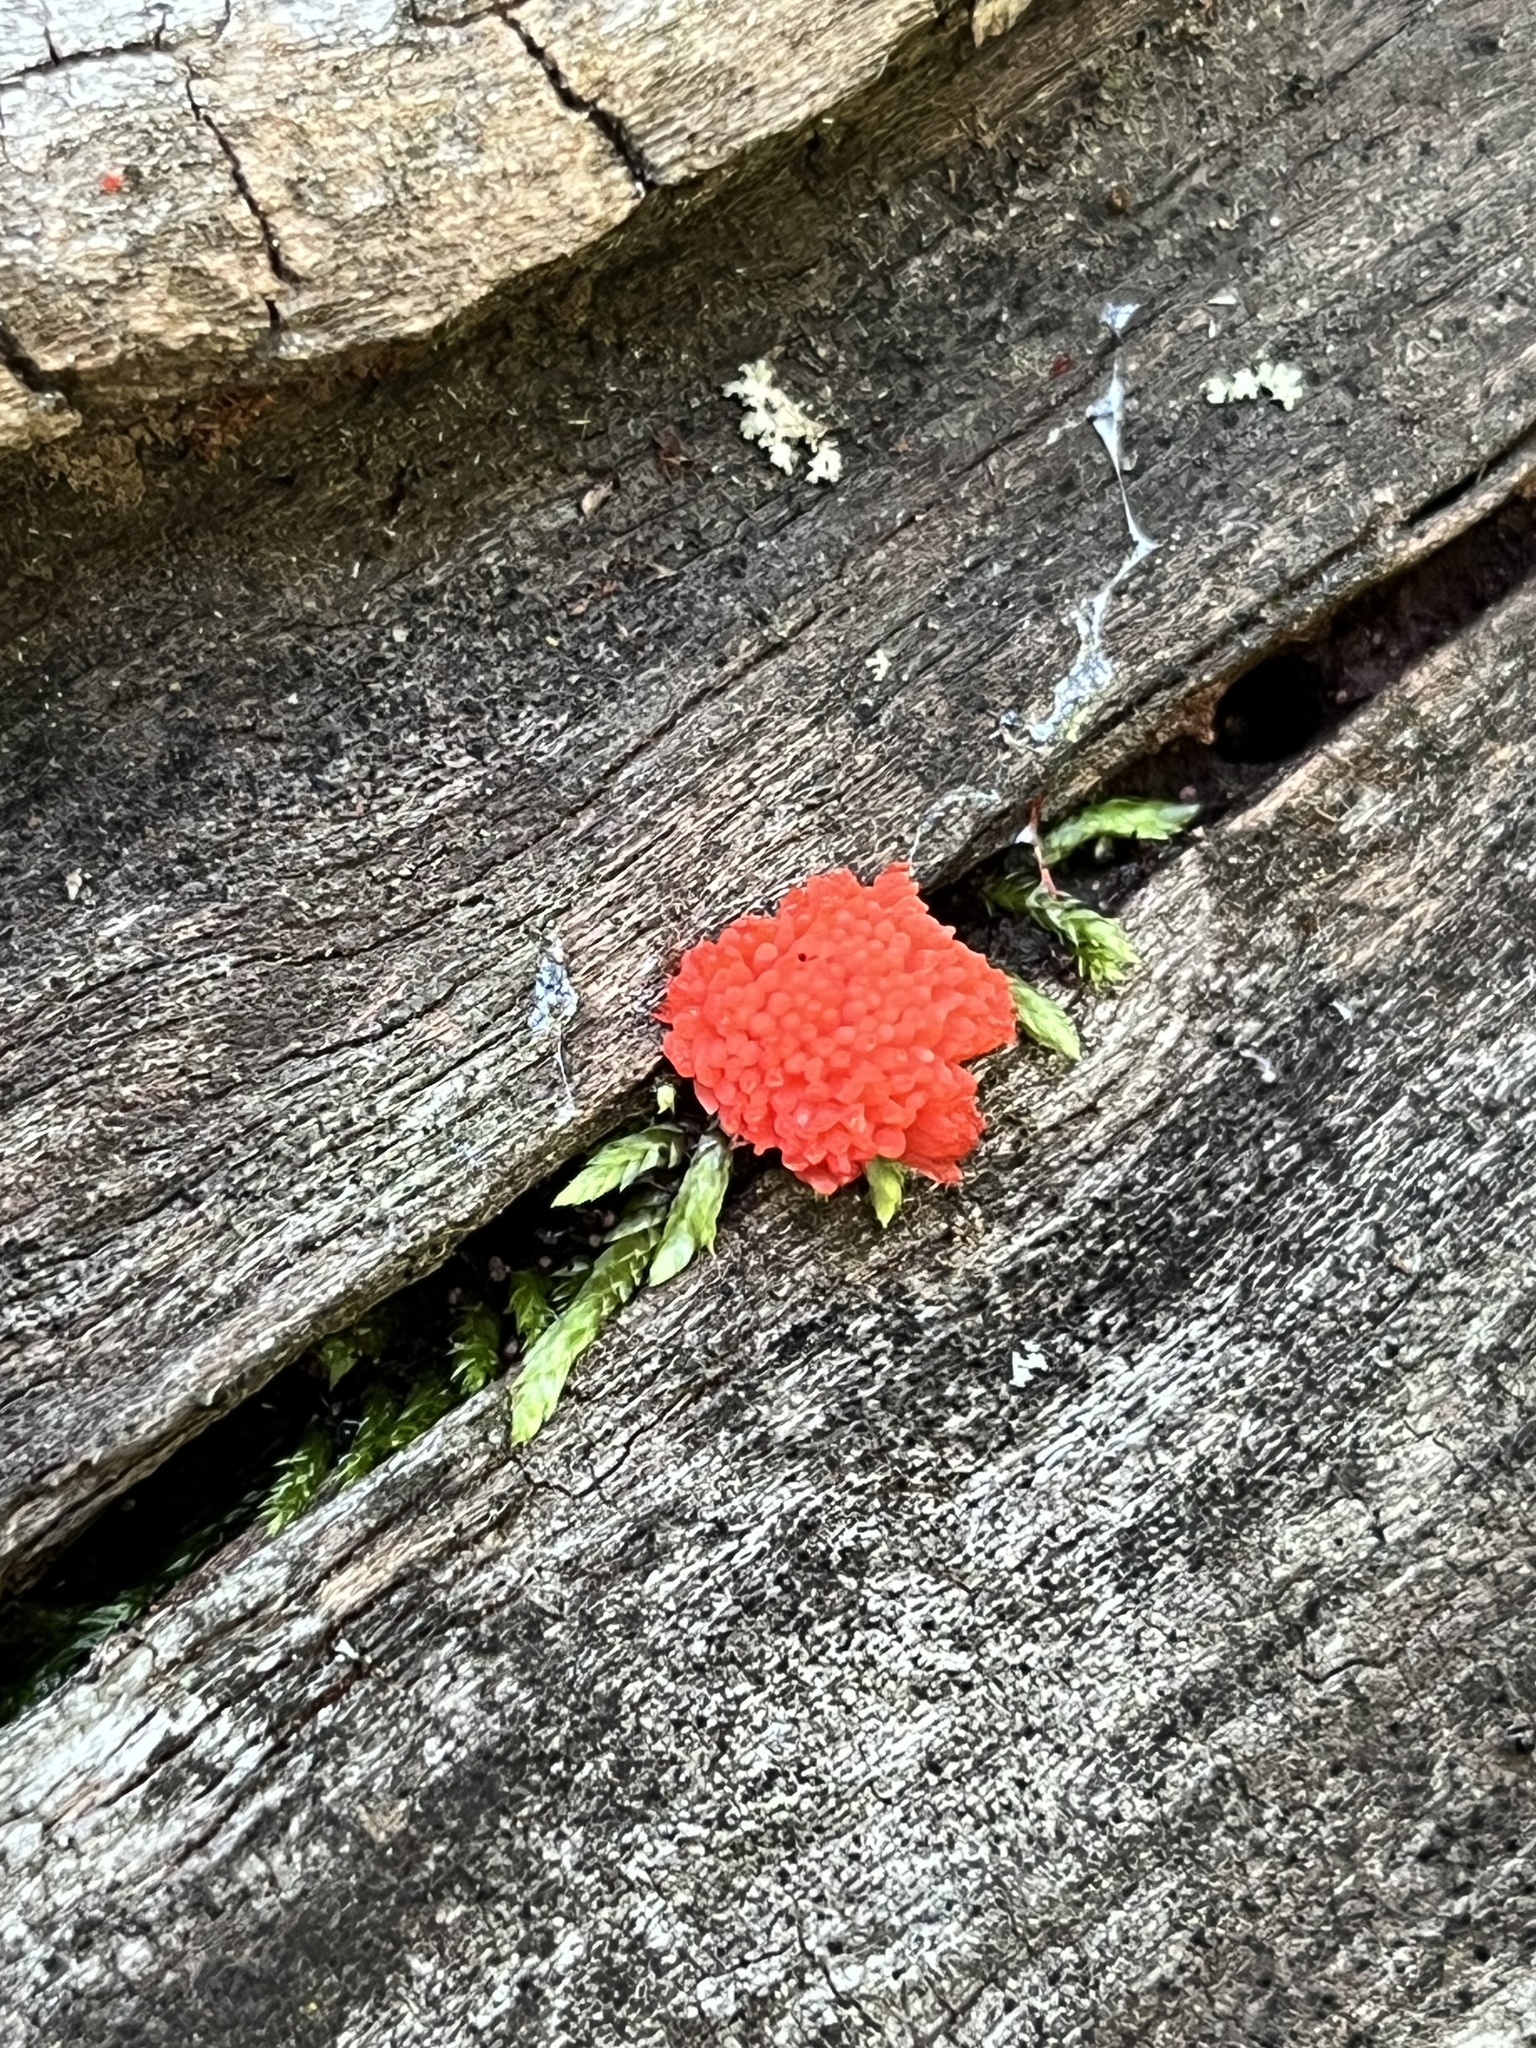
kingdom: Protozoa
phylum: Mycetozoa
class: Myxomycetes
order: Cribrariales
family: Tubiferaceae
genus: Tubifera
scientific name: Tubifera ferruginosa
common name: Red raspberry slime mold
